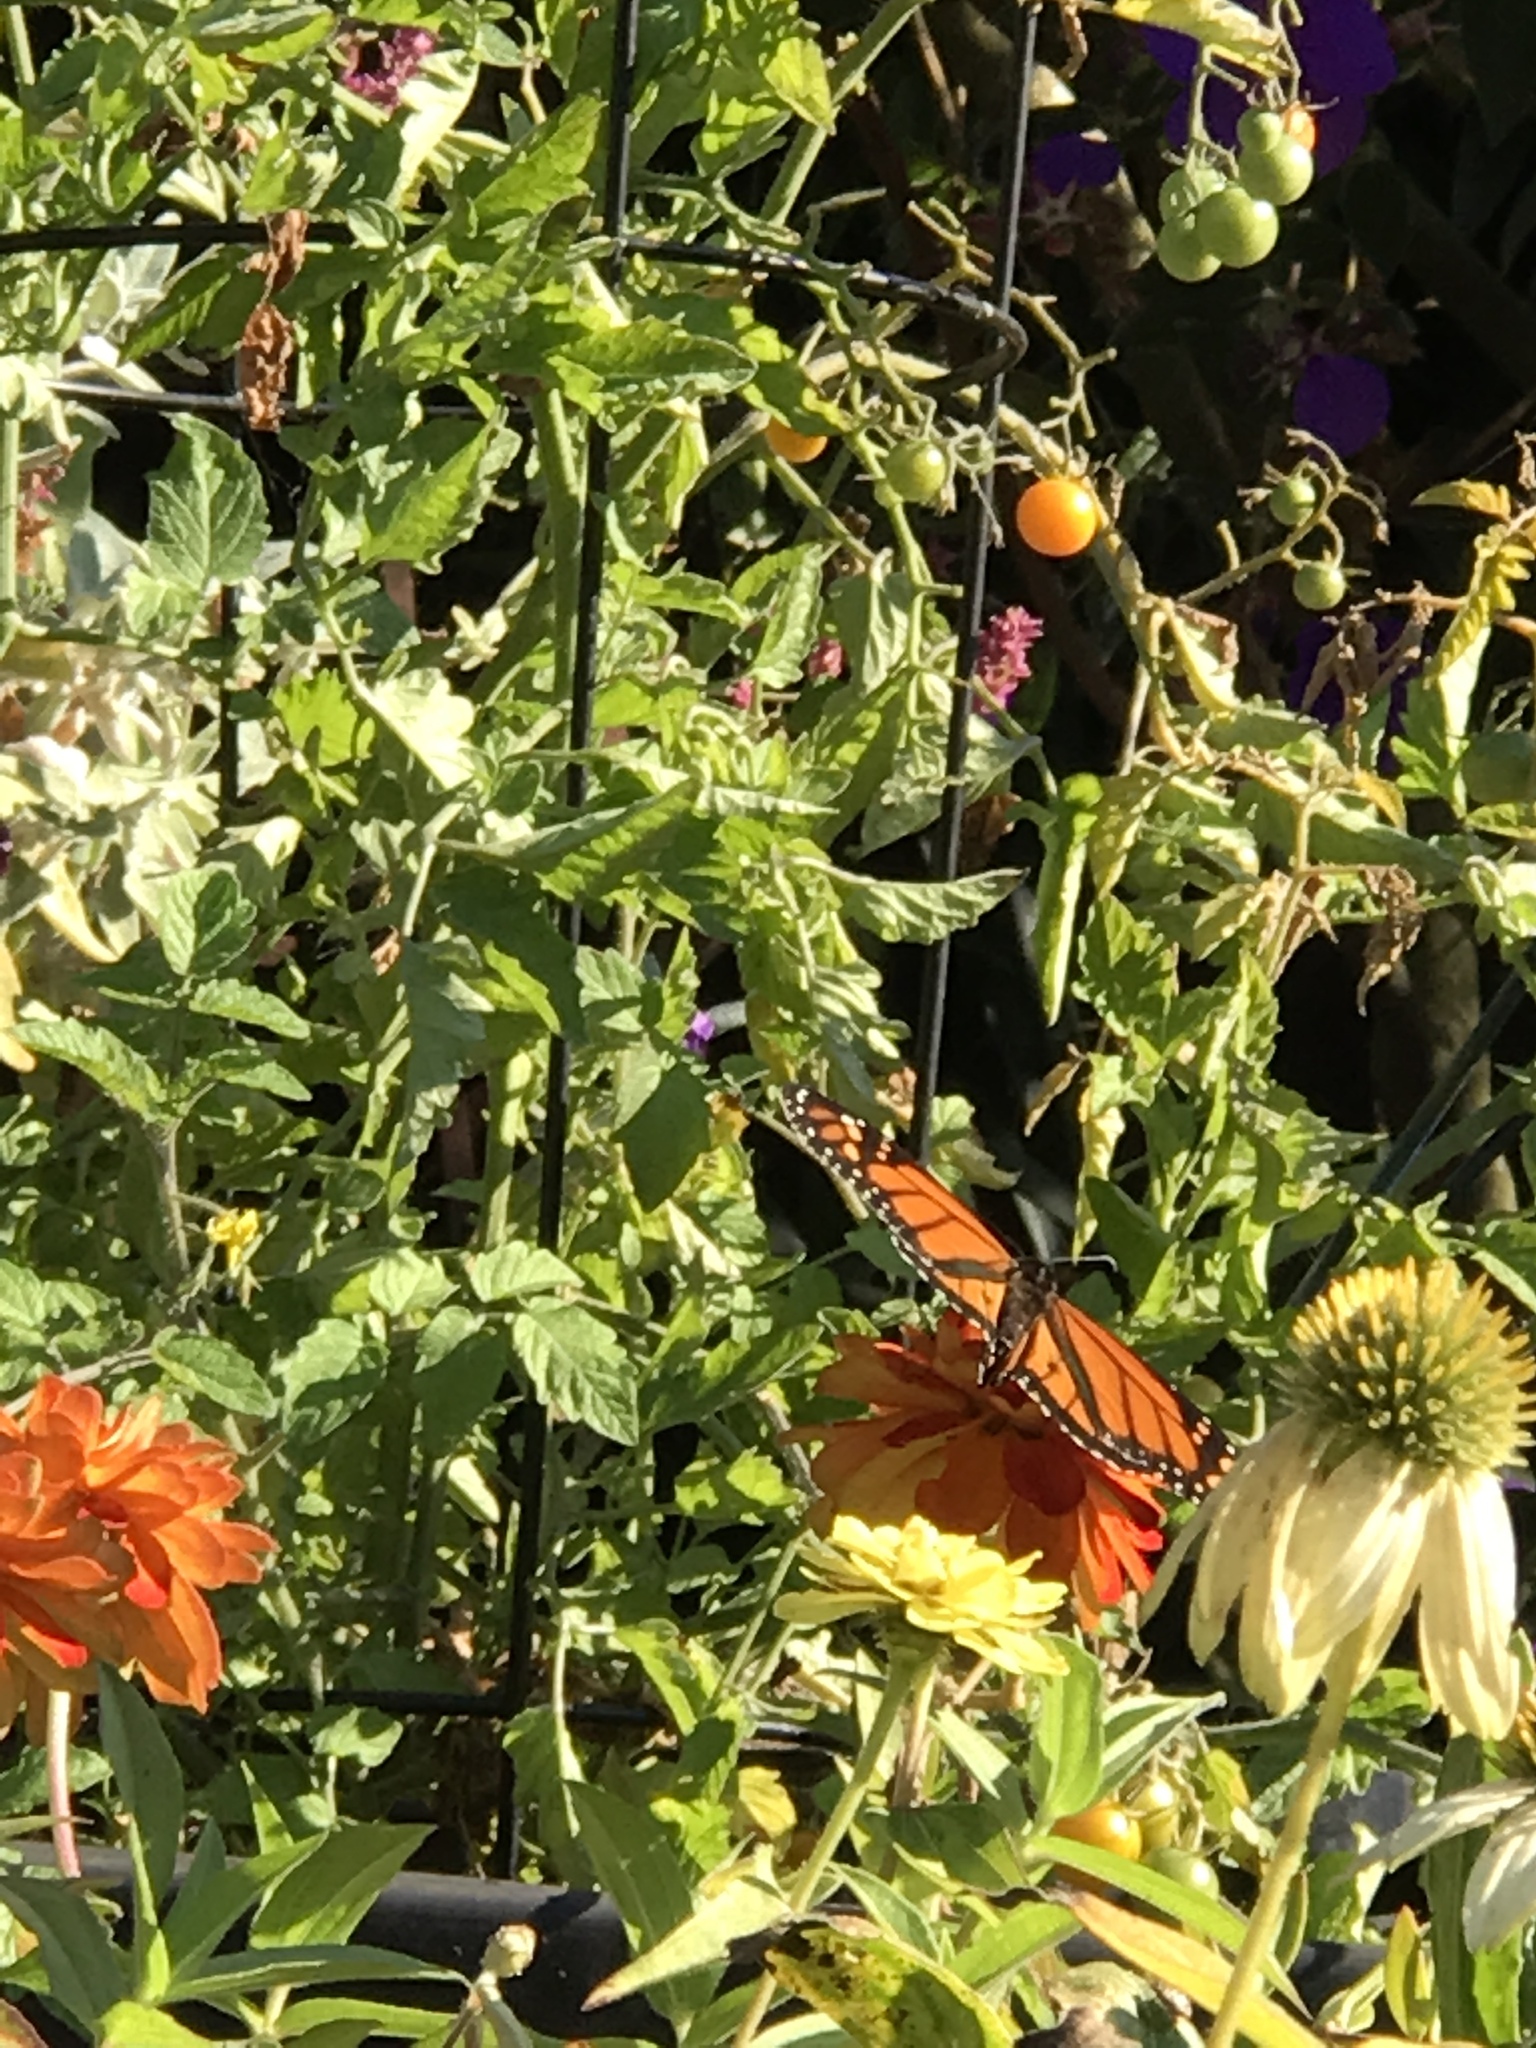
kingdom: Animalia
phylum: Arthropoda
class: Insecta
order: Lepidoptera
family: Nymphalidae
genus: Danaus
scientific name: Danaus plexippus
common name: Monarch
